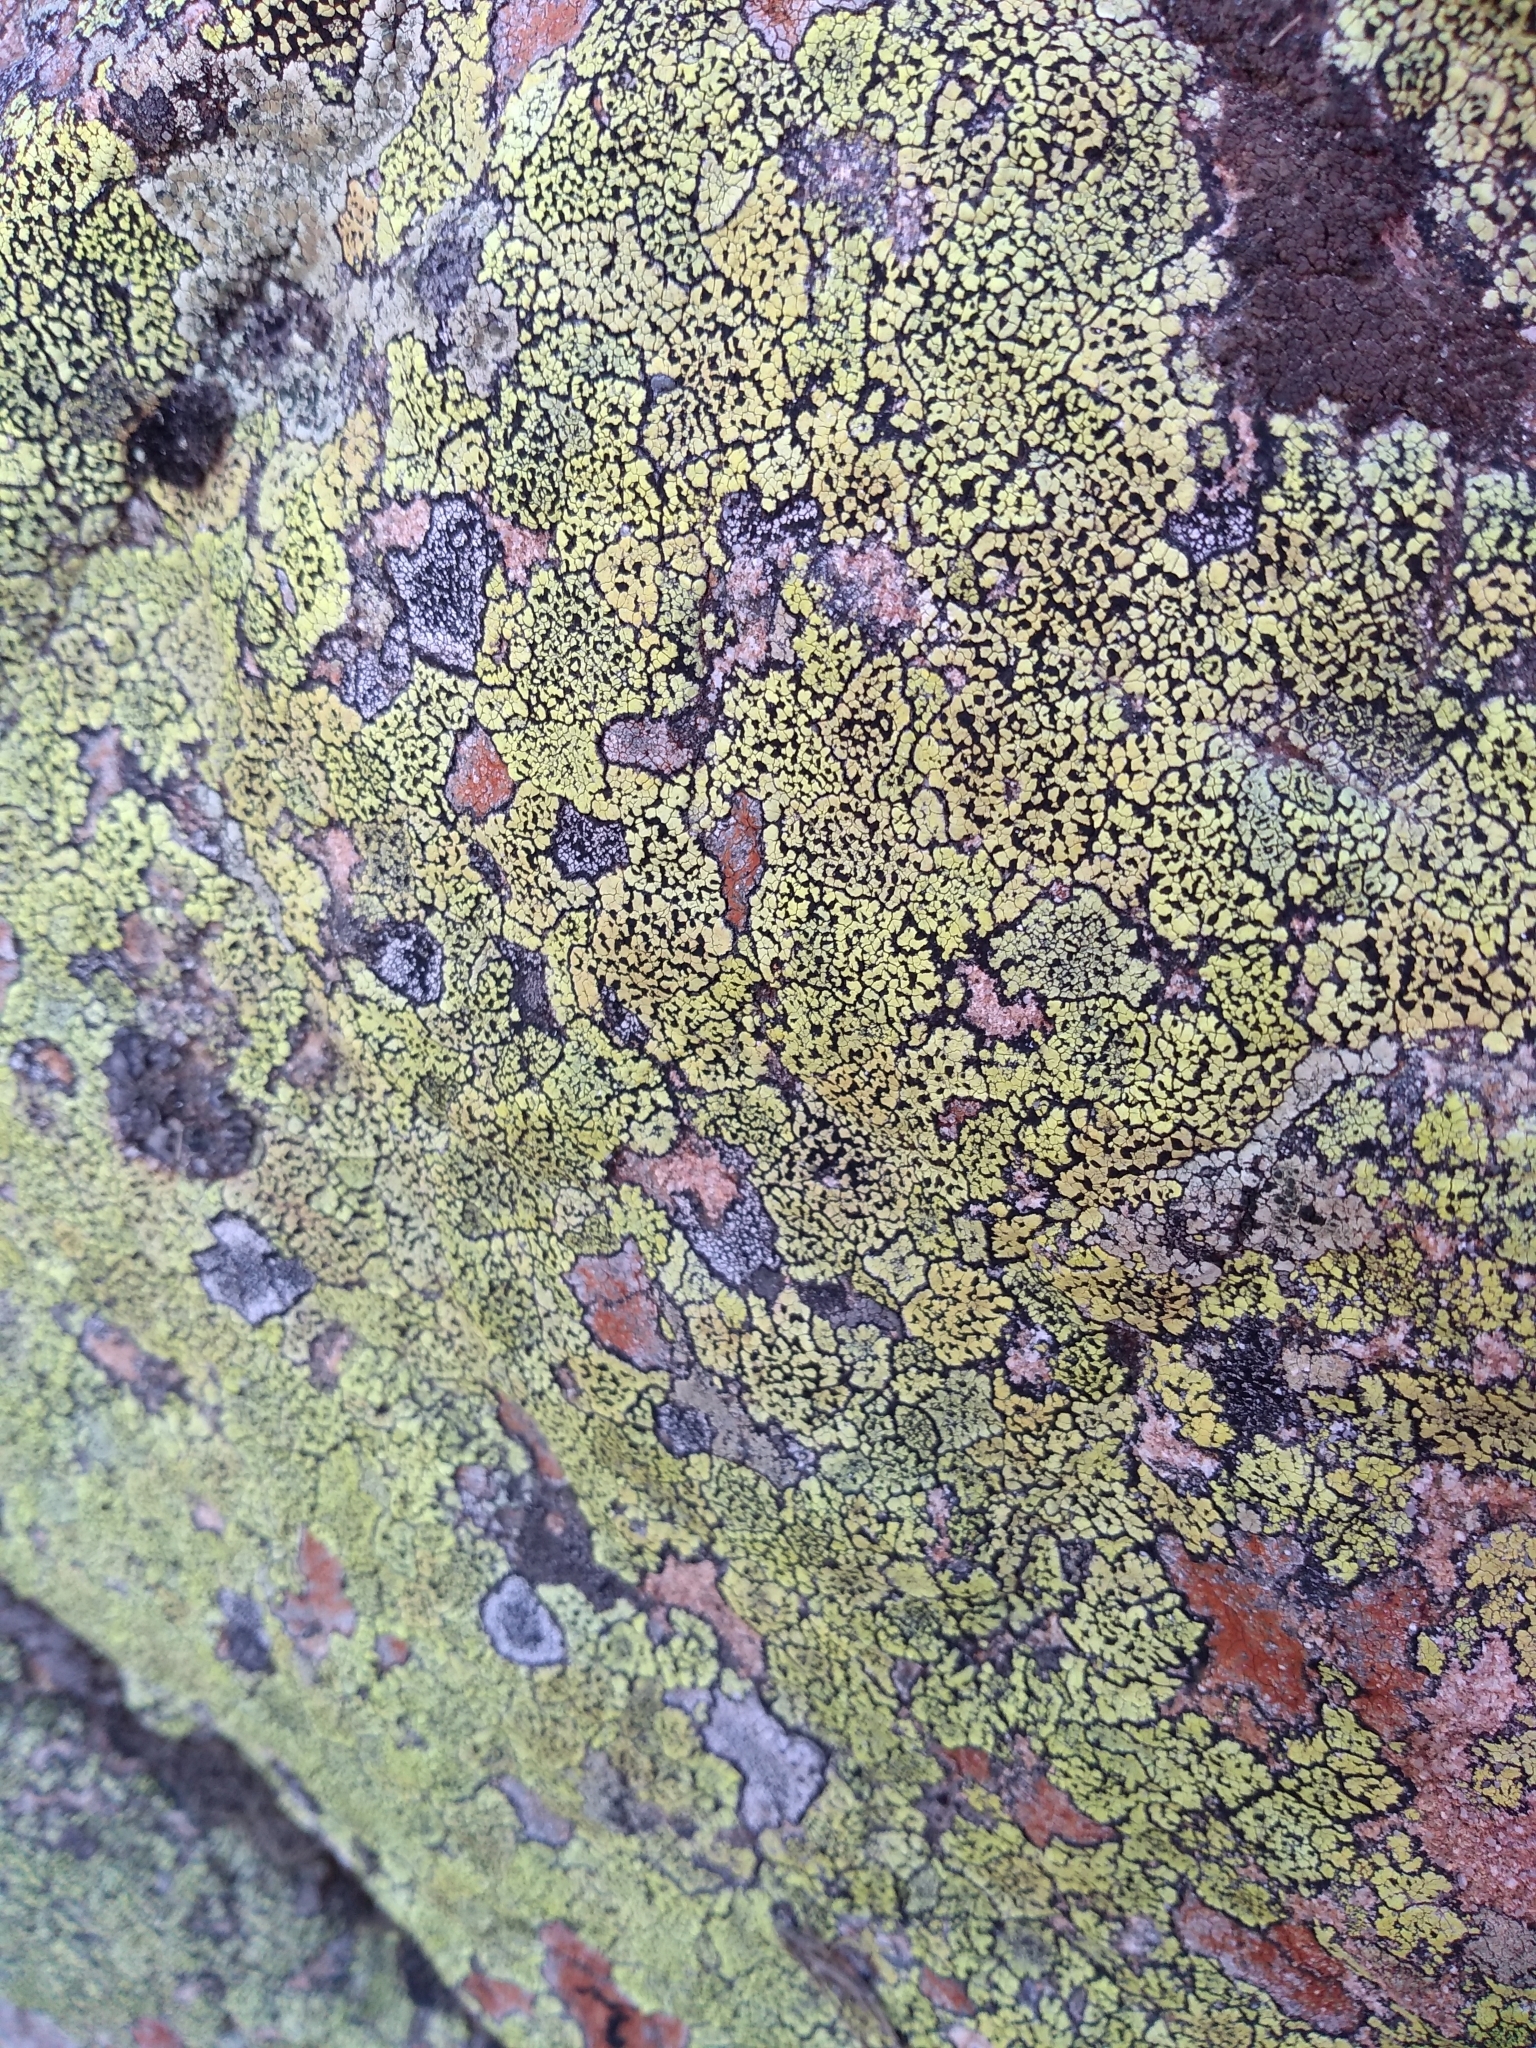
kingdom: Fungi
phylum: Ascomycota
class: Lecanoromycetes
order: Rhizocarpales
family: Rhizocarpaceae
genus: Rhizocarpon
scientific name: Rhizocarpon geographicum
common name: Yellow map lichen
